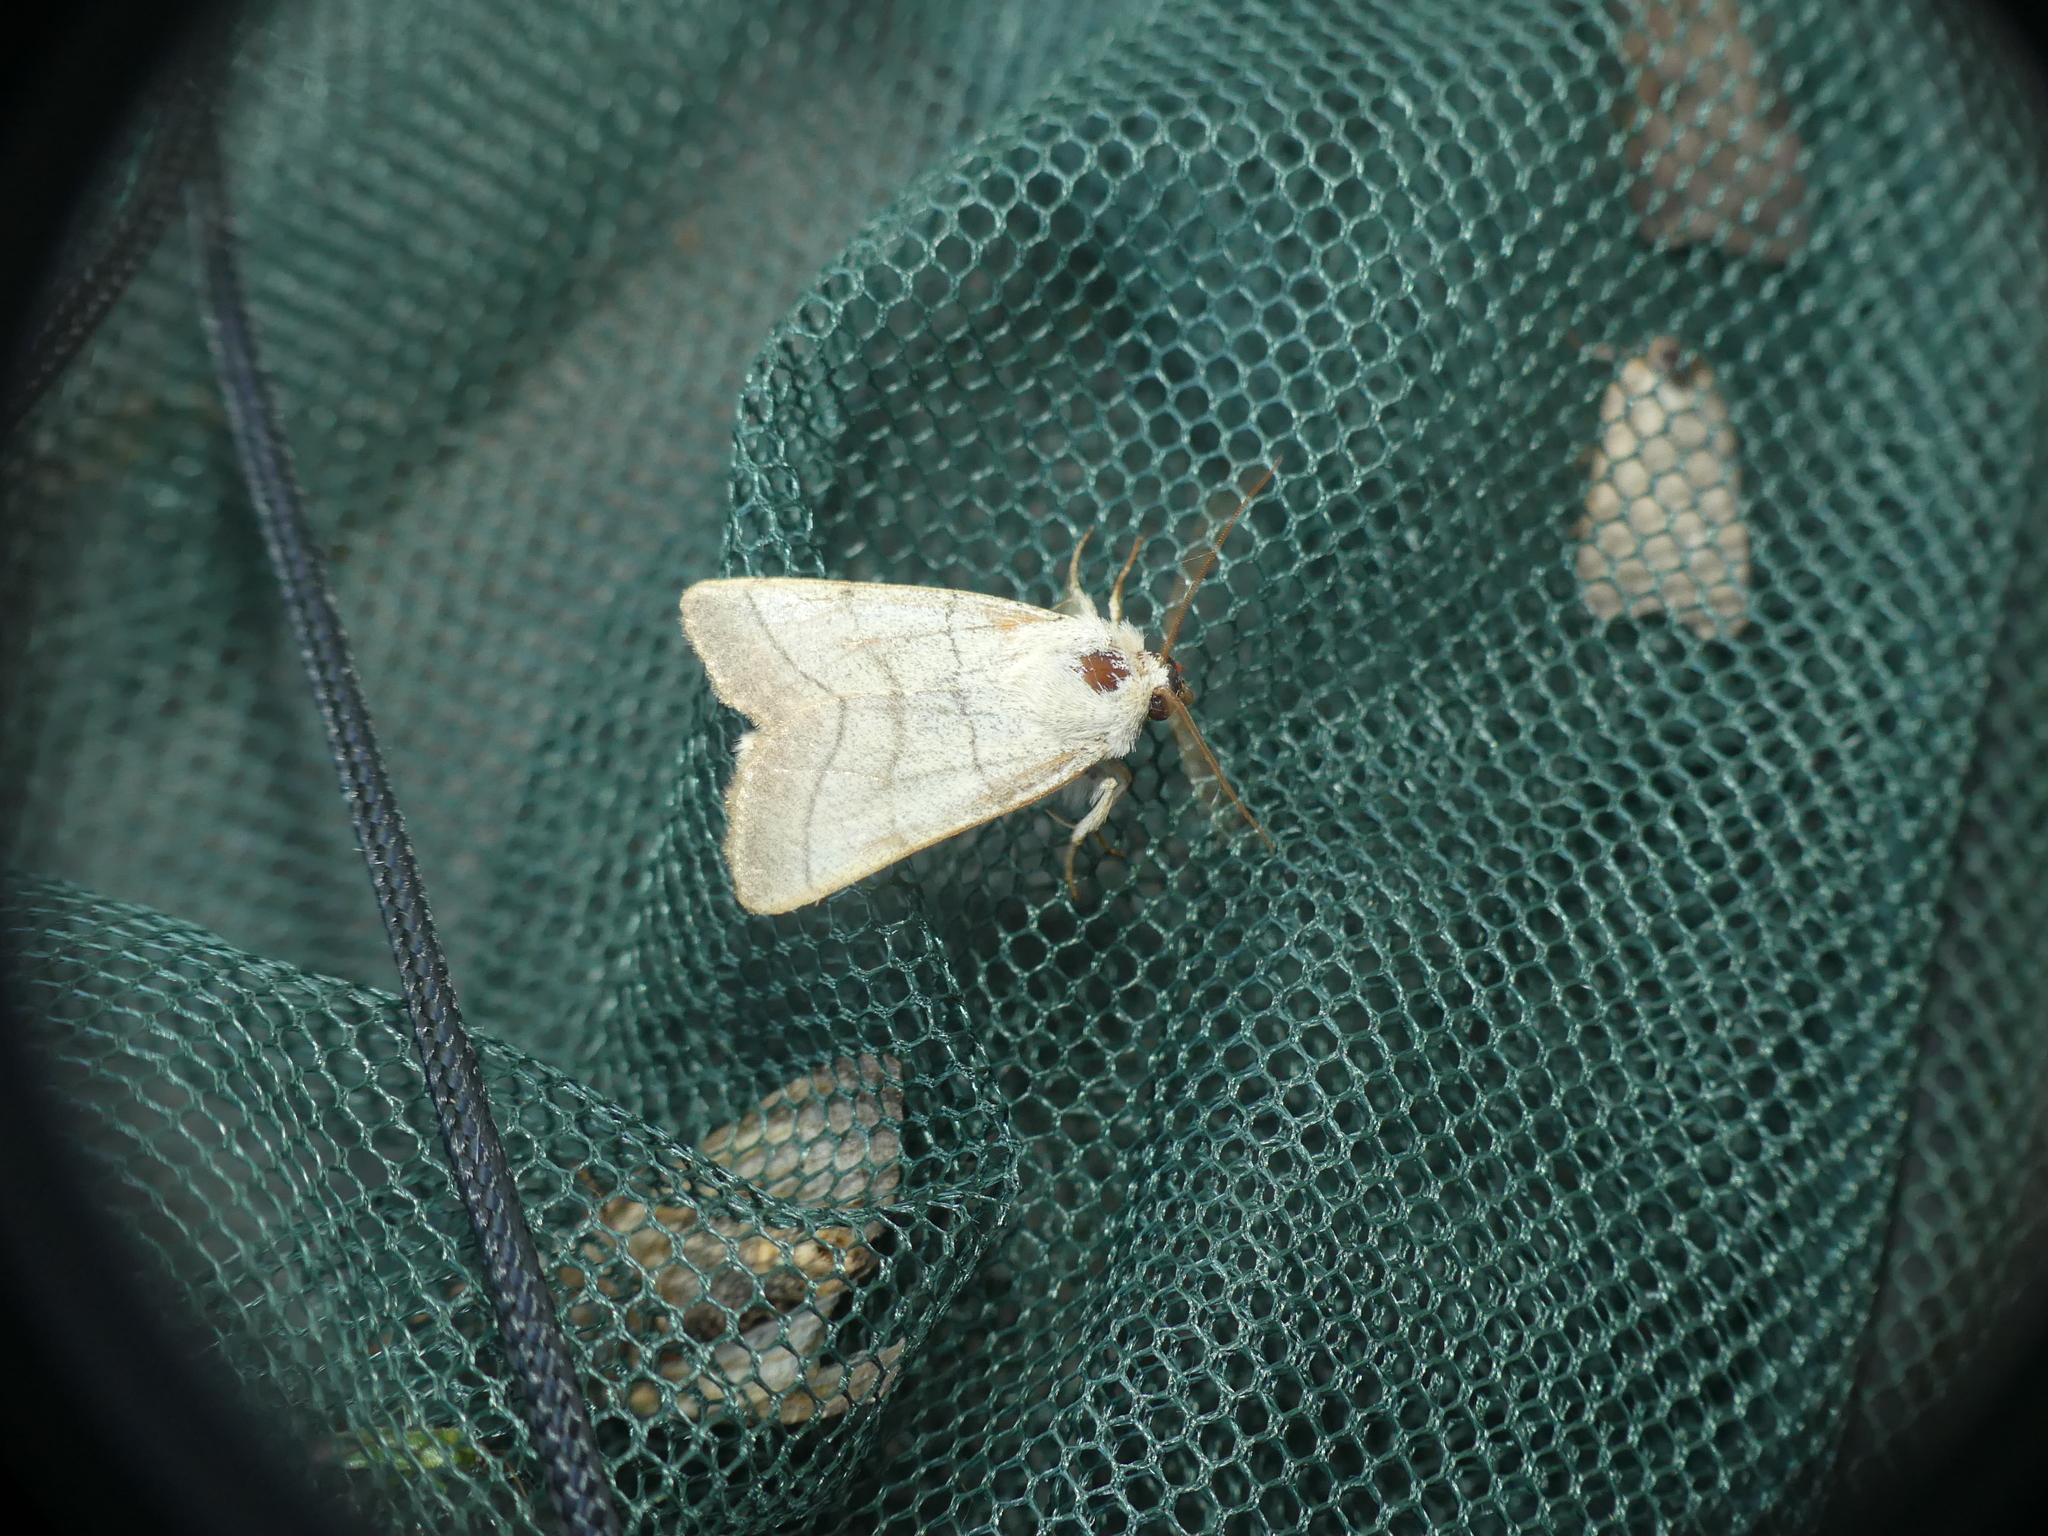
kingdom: Animalia
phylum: Arthropoda
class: Insecta
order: Lepidoptera
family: Noctuidae
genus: Charanyca
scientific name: Charanyca trigrammica
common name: Treble lines
